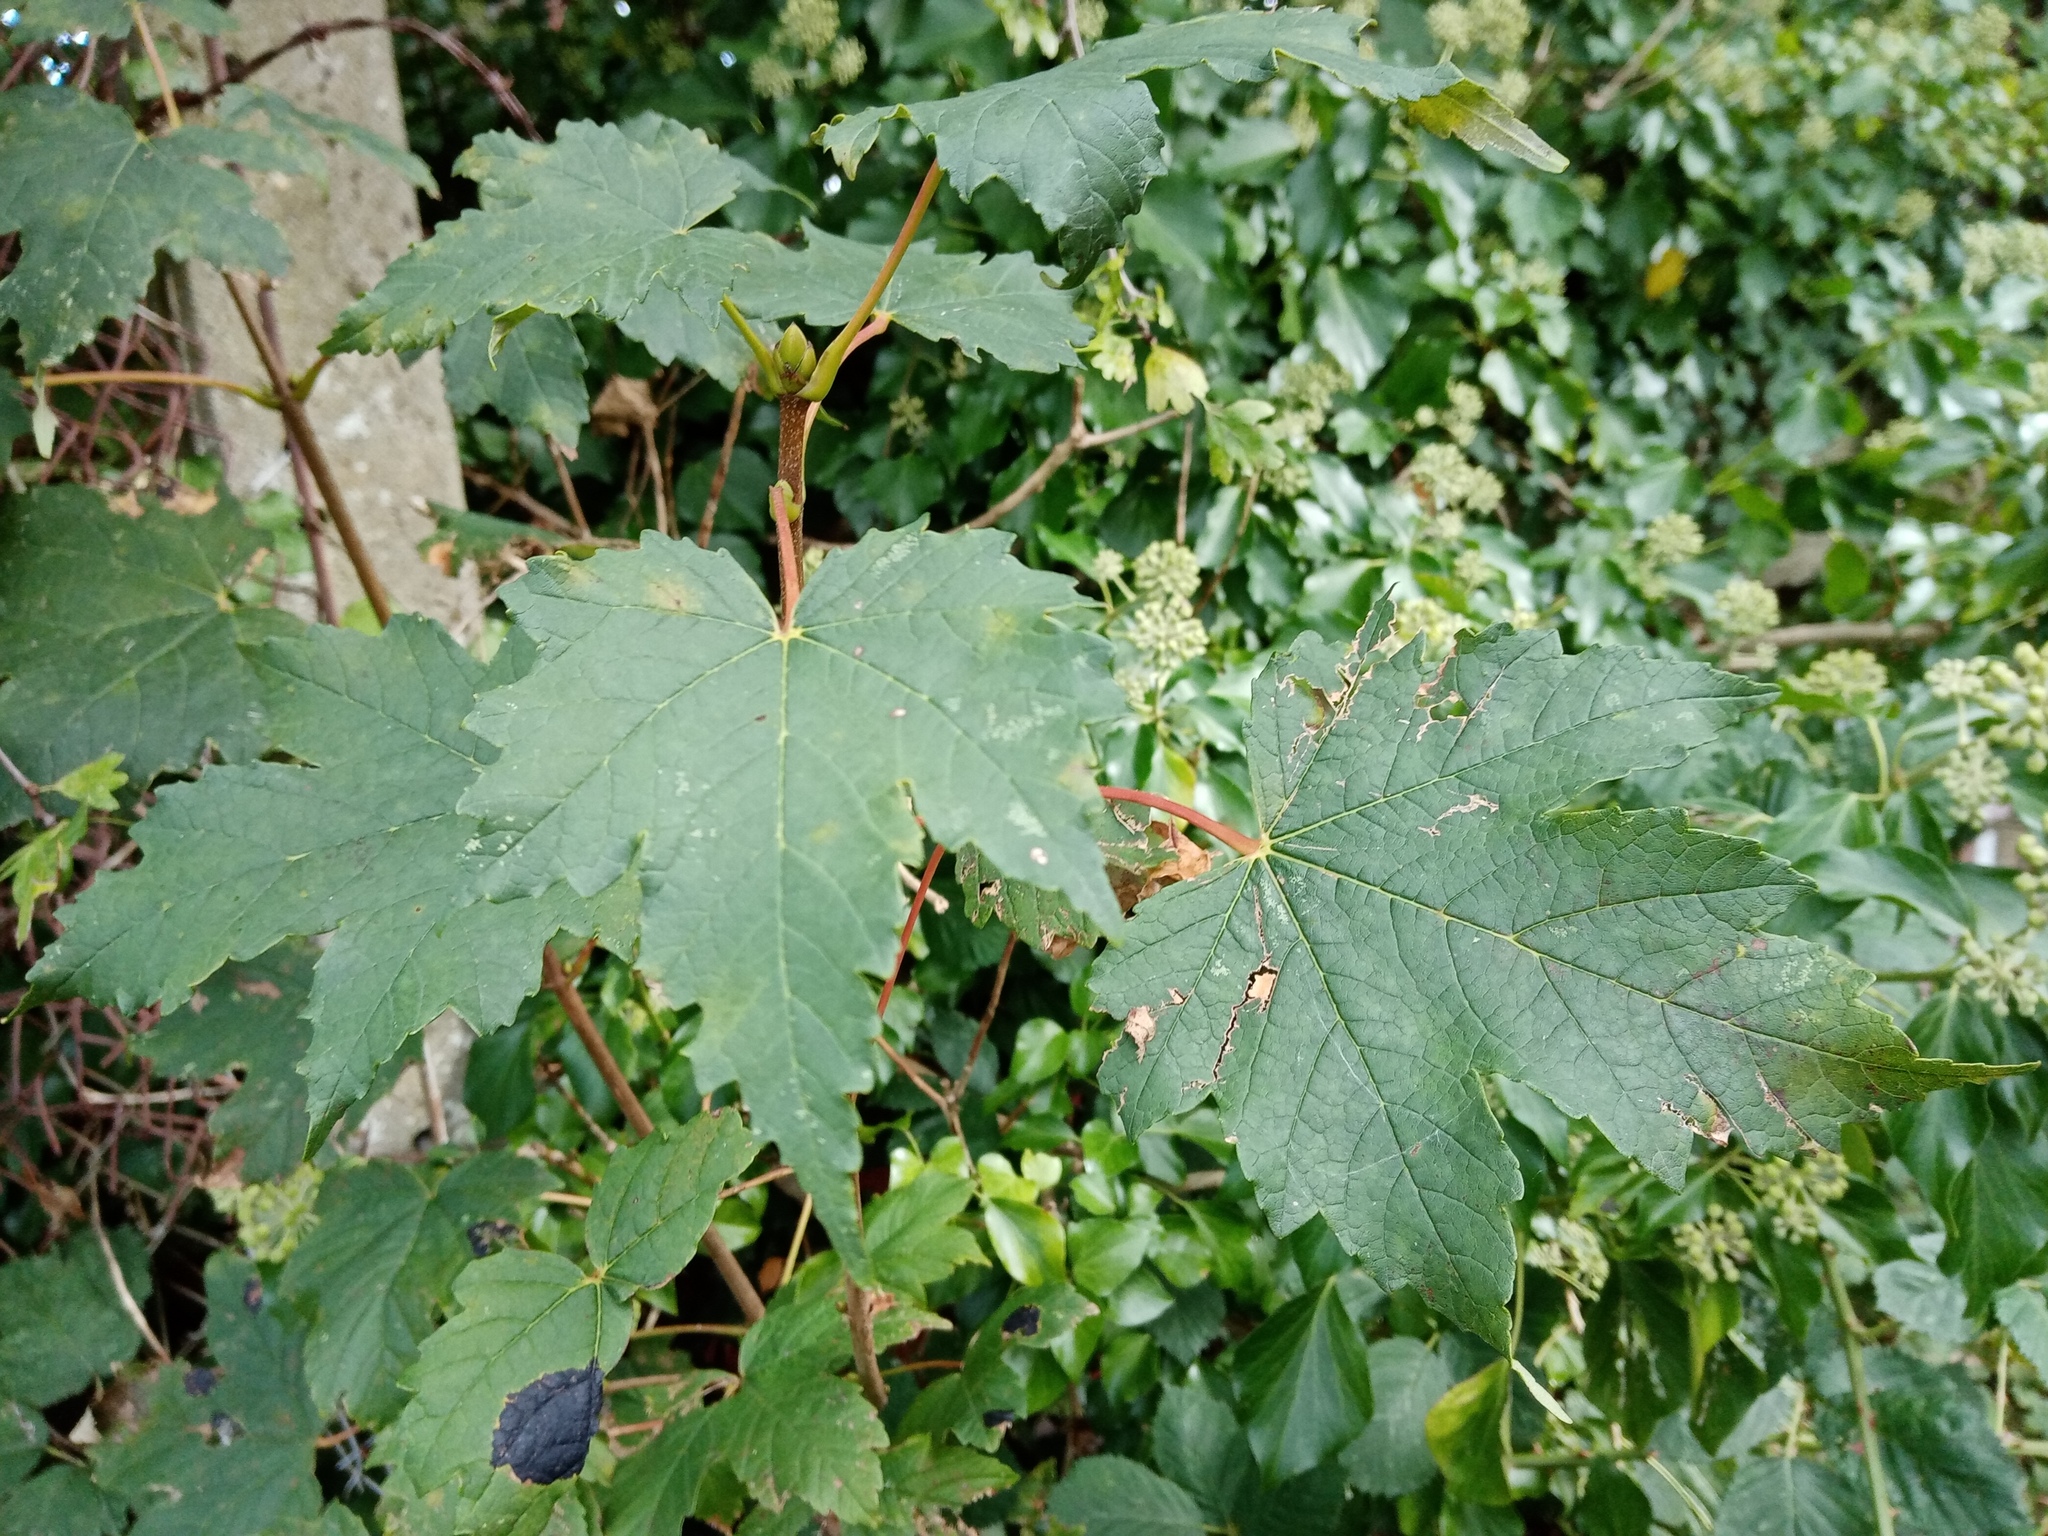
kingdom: Plantae
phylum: Tracheophyta
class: Magnoliopsida
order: Sapindales
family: Sapindaceae
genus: Acer
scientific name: Acer pseudoplatanus
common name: Sycamore
